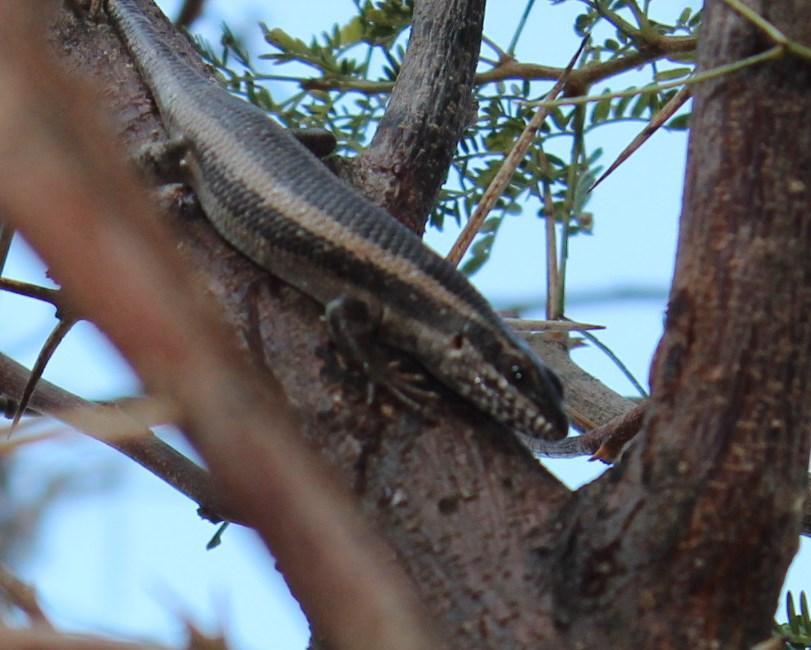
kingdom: Animalia
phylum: Chordata
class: Squamata
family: Scincidae
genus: Trachylepis
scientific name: Trachylepis spilogaster
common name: Kalahari tree skink
